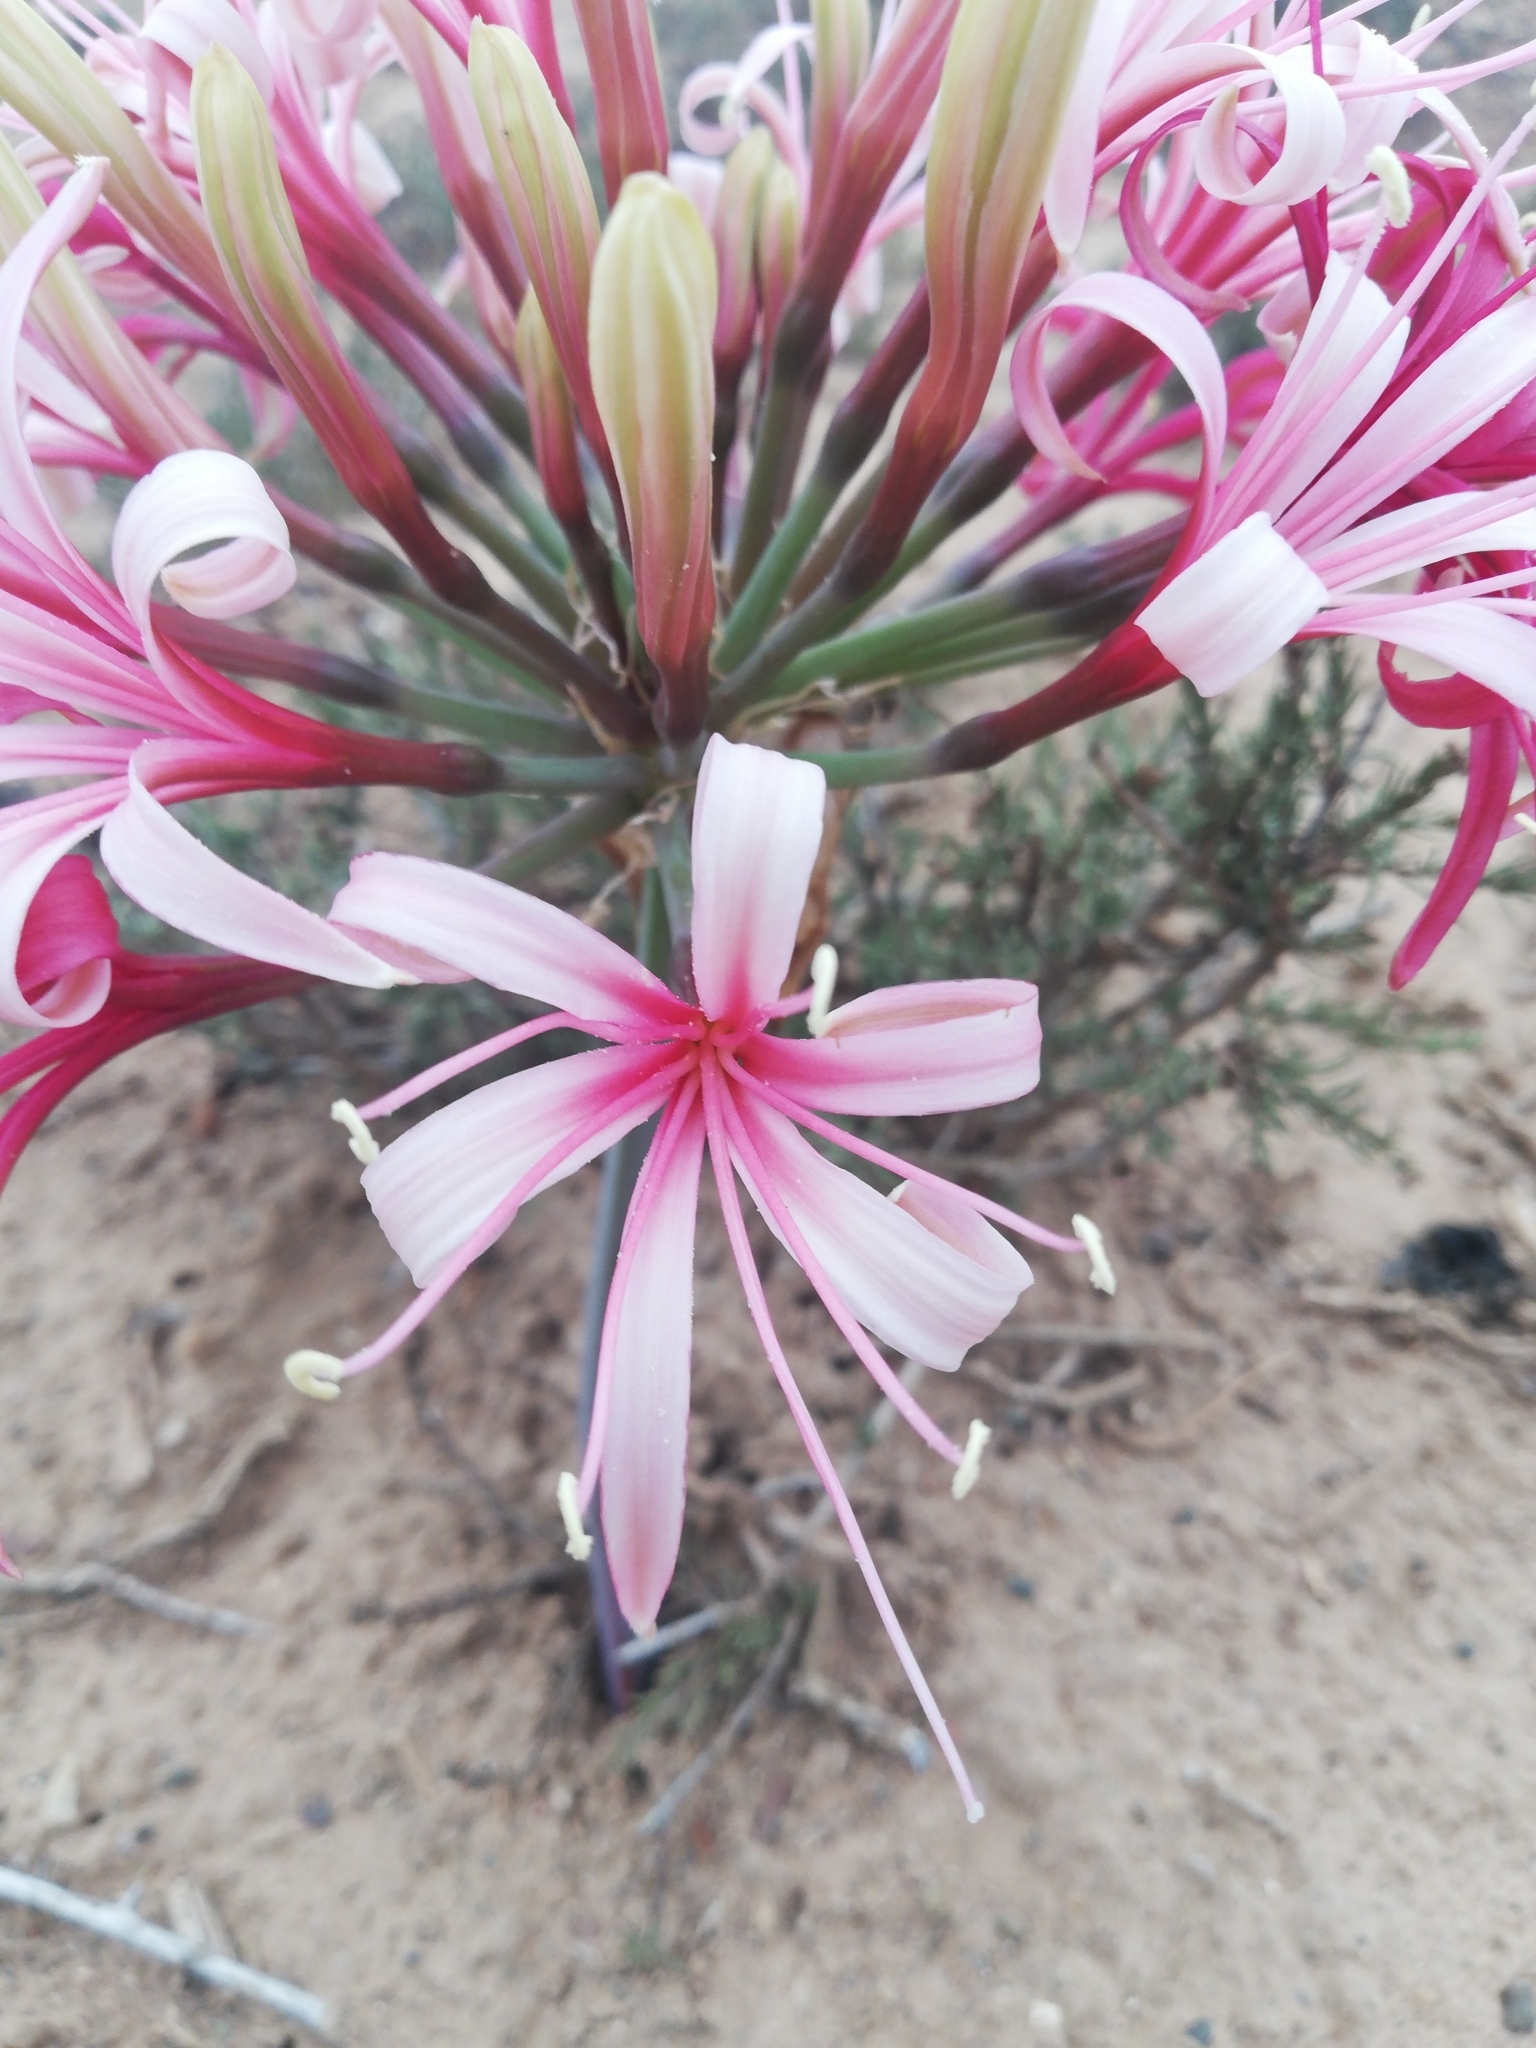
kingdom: Plantae
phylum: Tracheophyta
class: Liliopsida
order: Asparagales
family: Amaryllidaceae
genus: Ammocharis
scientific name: Ammocharis coranica
